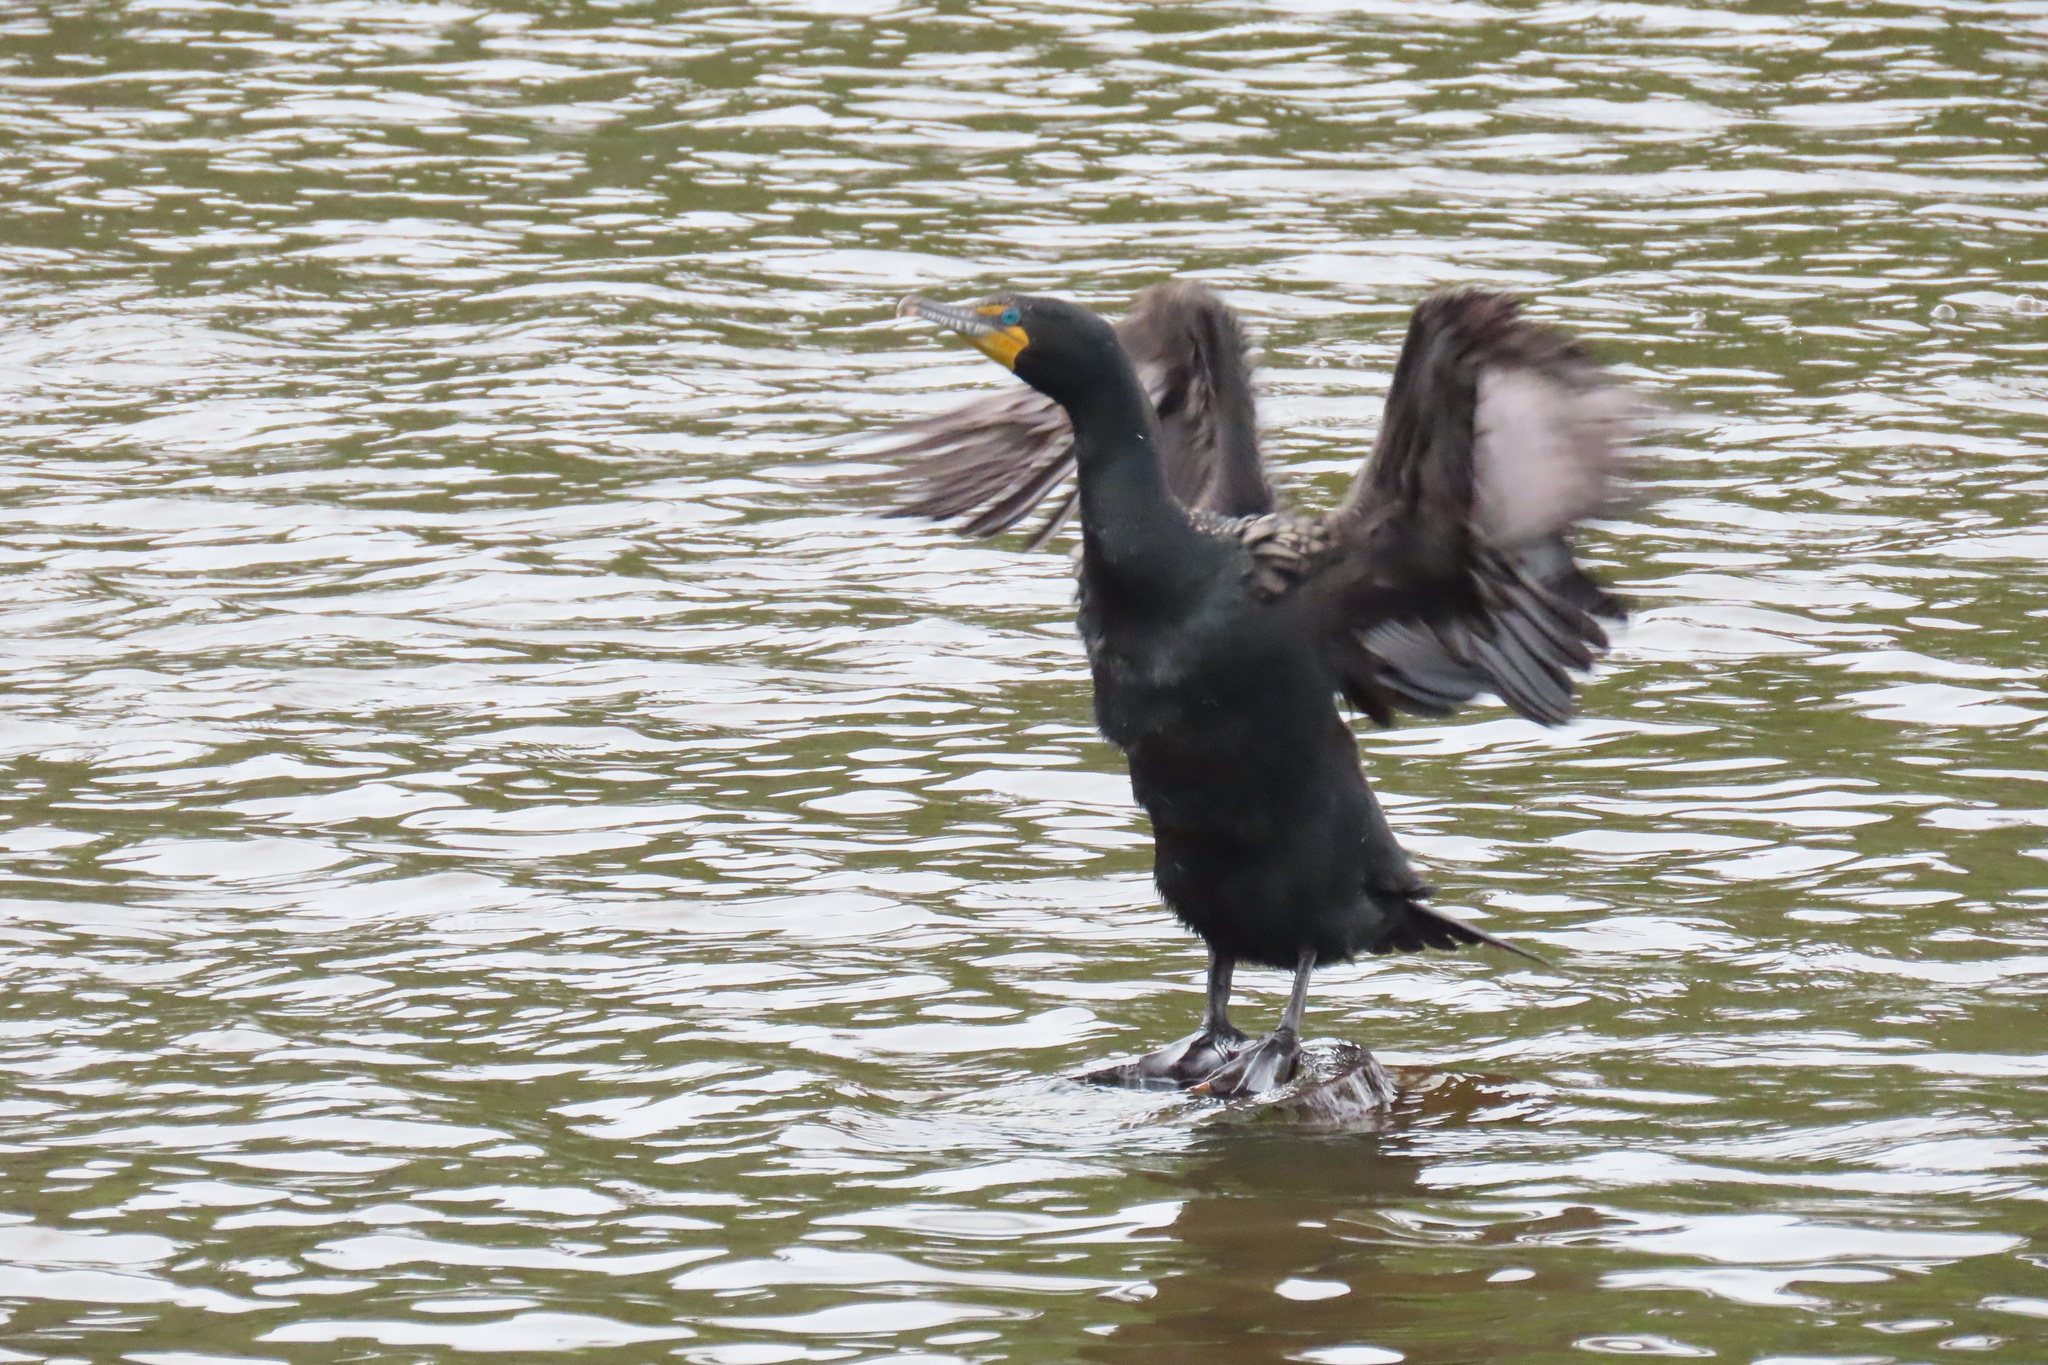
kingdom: Animalia
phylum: Chordata
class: Aves
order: Suliformes
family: Phalacrocoracidae
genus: Phalacrocorax
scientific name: Phalacrocorax auritus
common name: Double-crested cormorant
